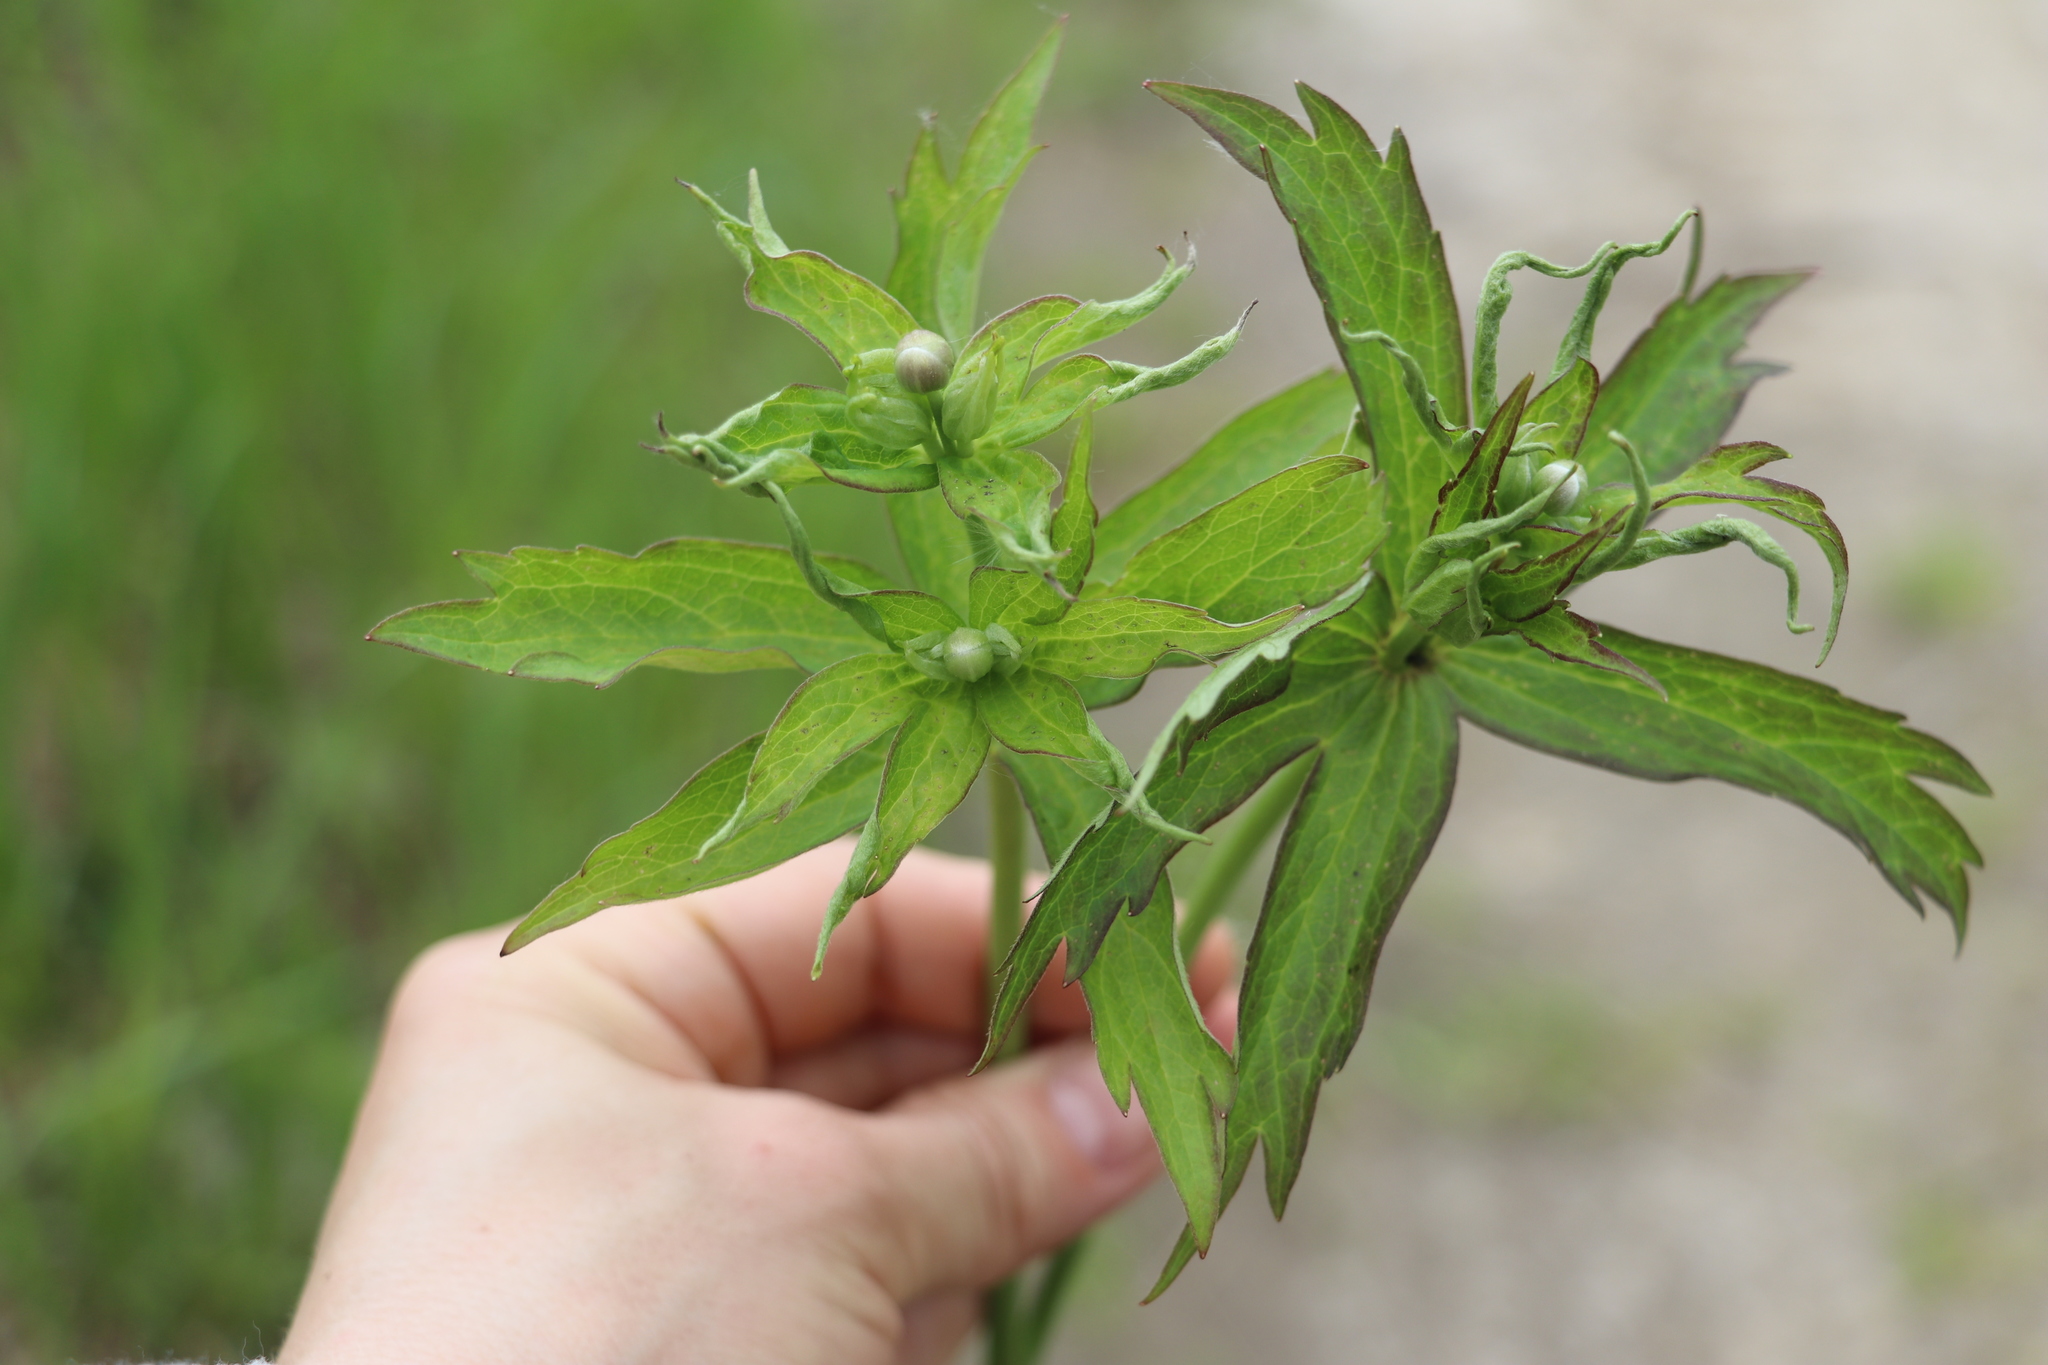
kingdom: Plantae
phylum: Tracheophyta
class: Magnoliopsida
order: Ranunculales
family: Ranunculaceae
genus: Anemonastrum
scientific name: Anemonastrum dichotomum
